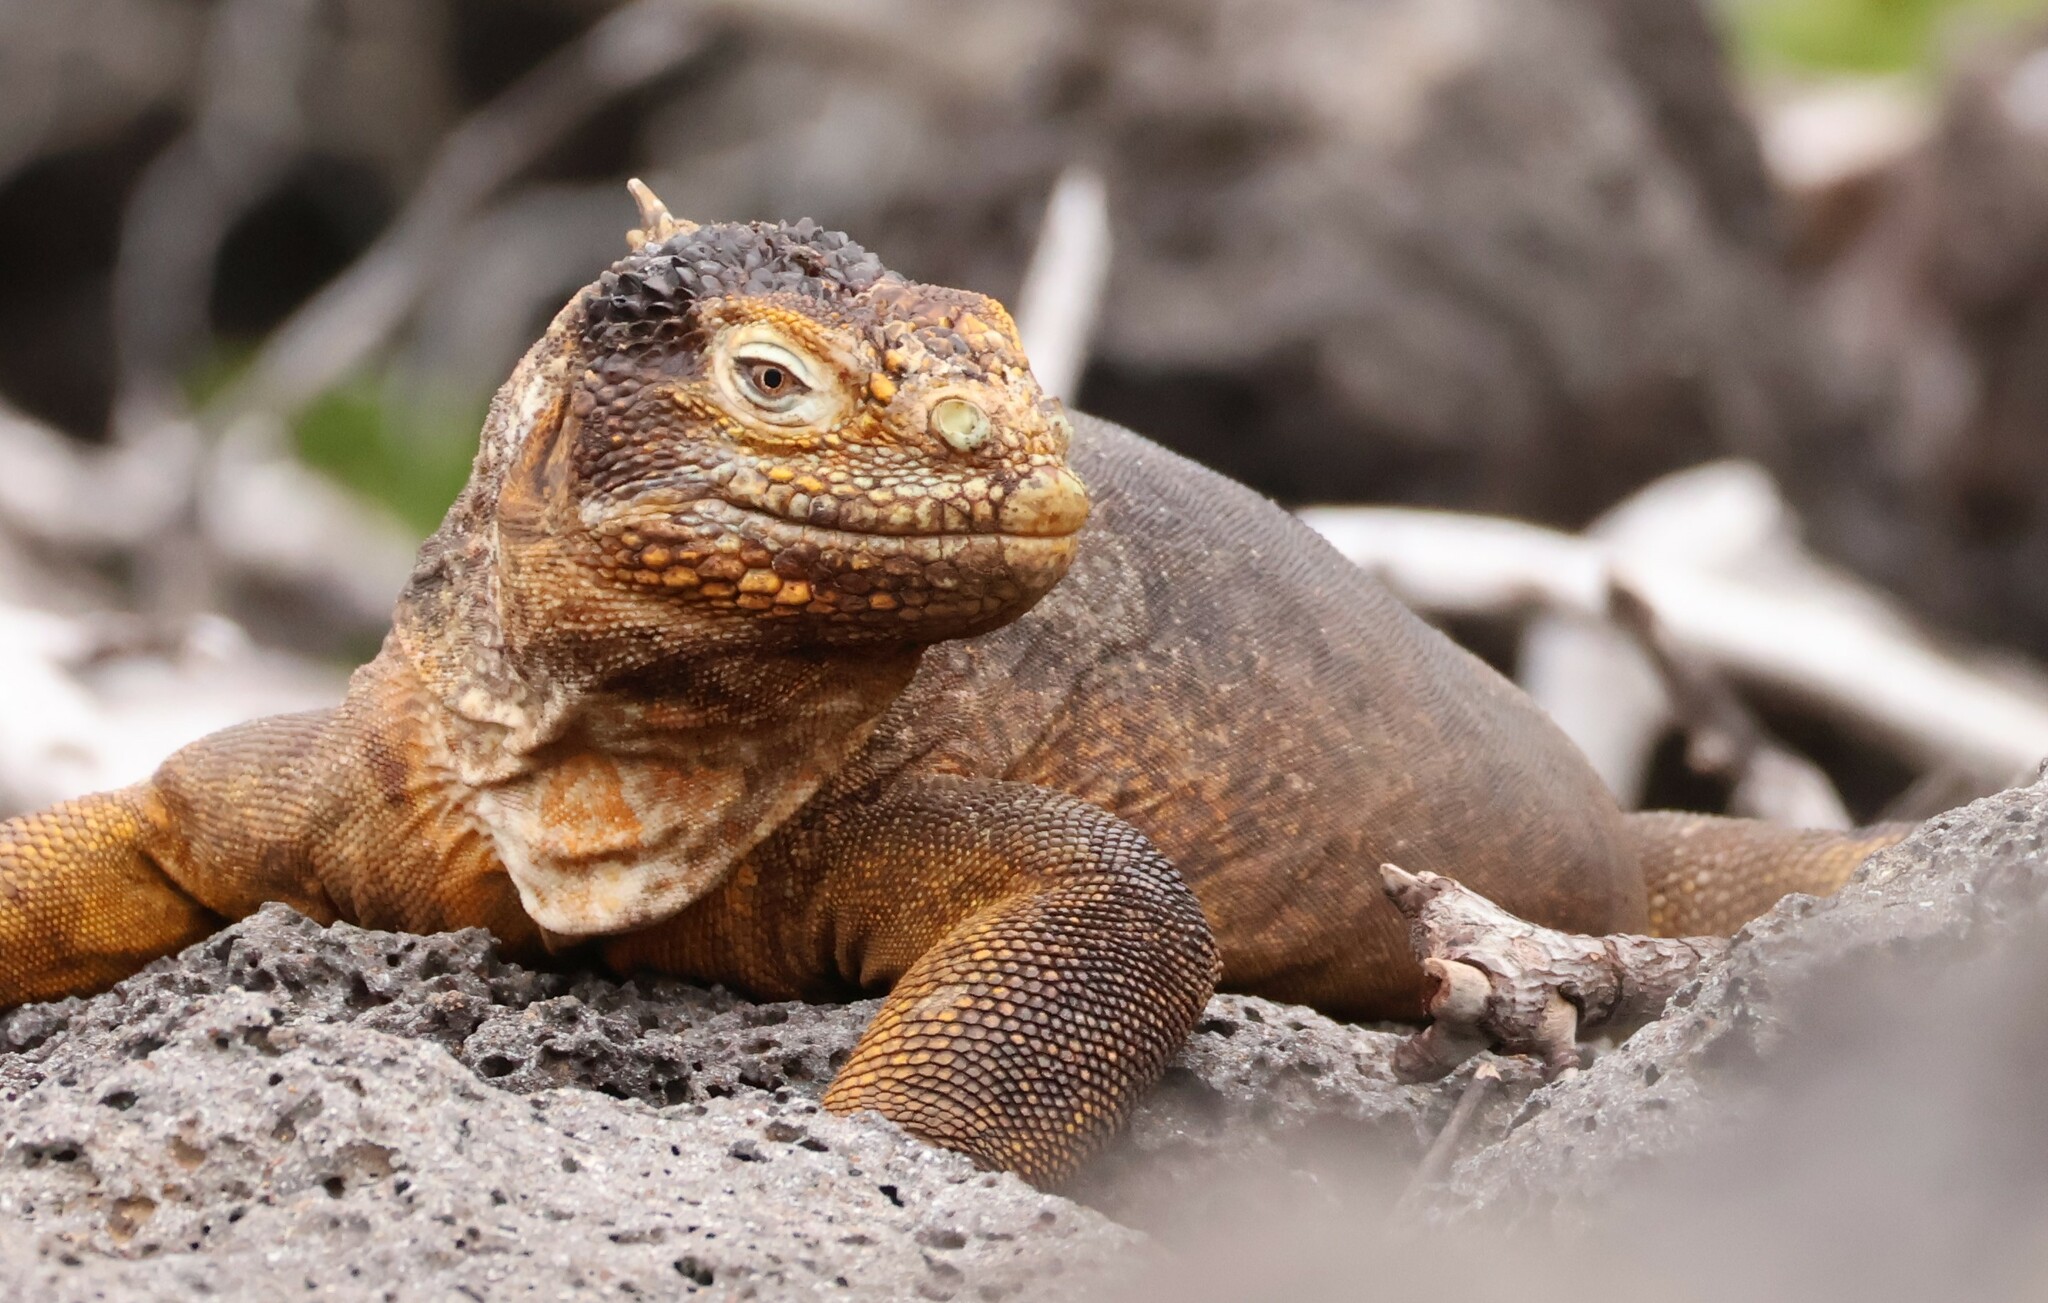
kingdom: Animalia
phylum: Chordata
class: Squamata
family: Iguanidae
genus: Conolophus
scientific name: Conolophus subcristatus
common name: Galapagos land iguana
